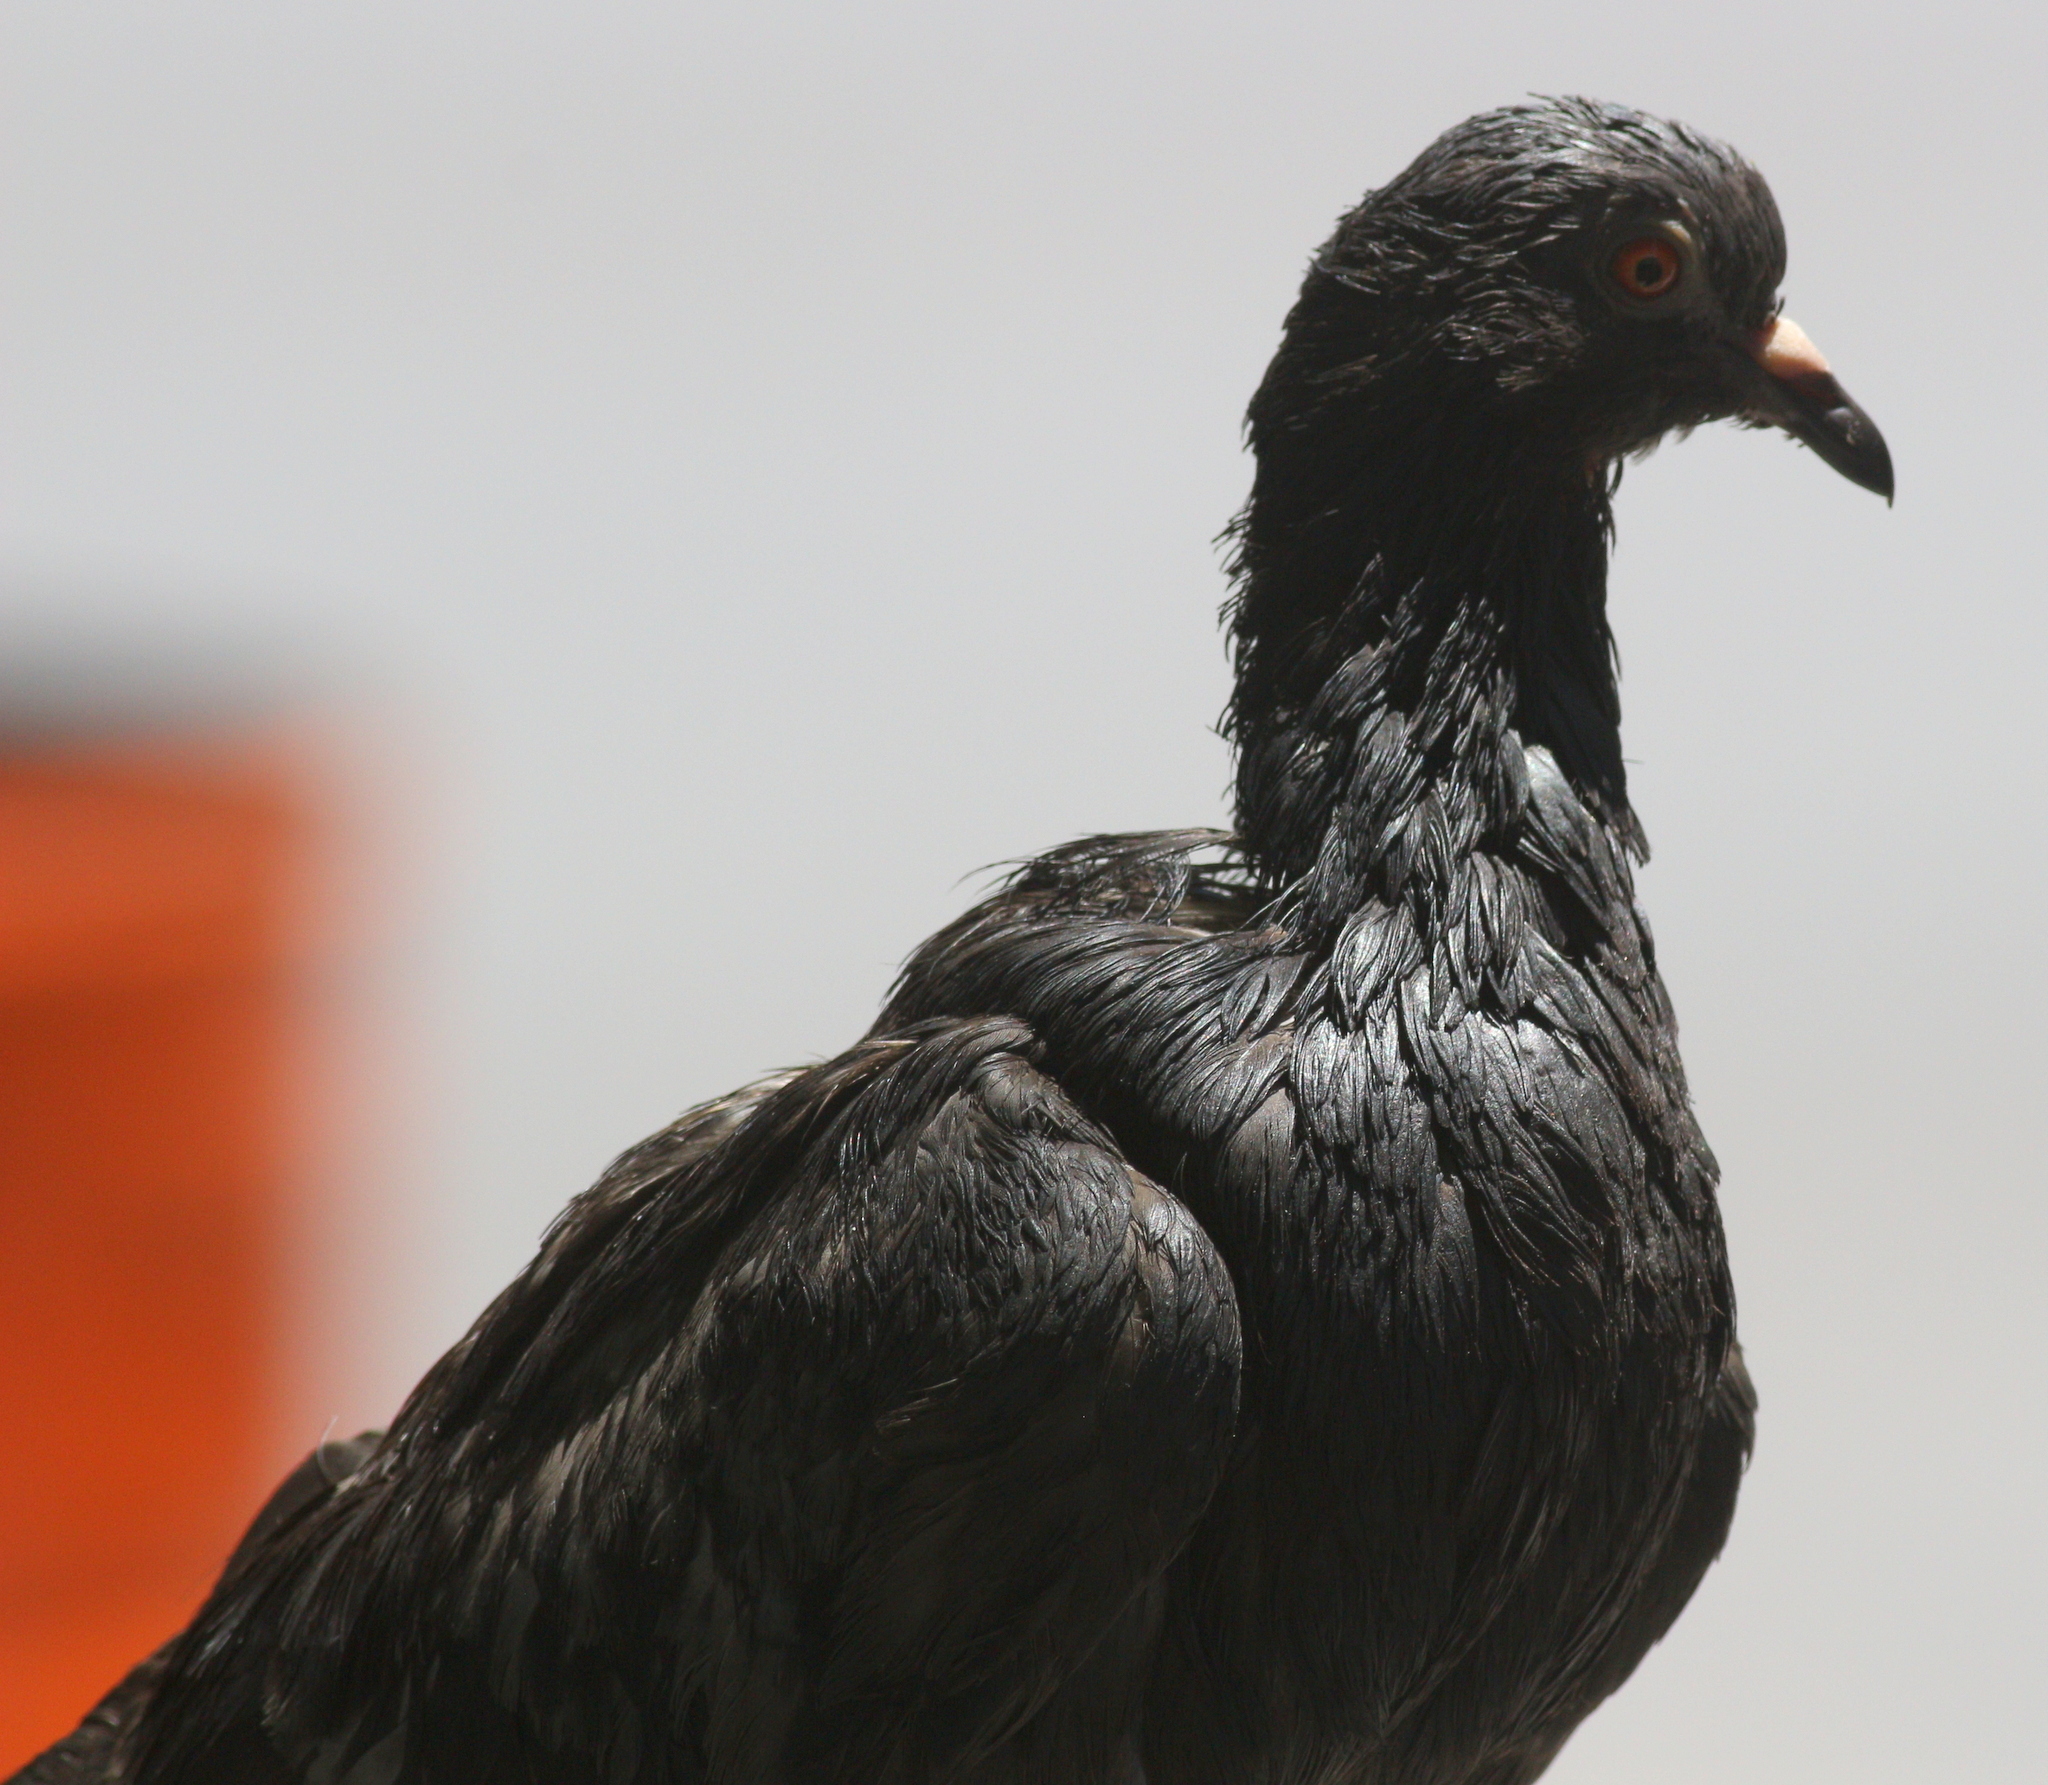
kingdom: Animalia
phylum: Chordata
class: Aves
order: Columbiformes
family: Columbidae
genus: Columba
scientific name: Columba livia
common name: Rock pigeon
